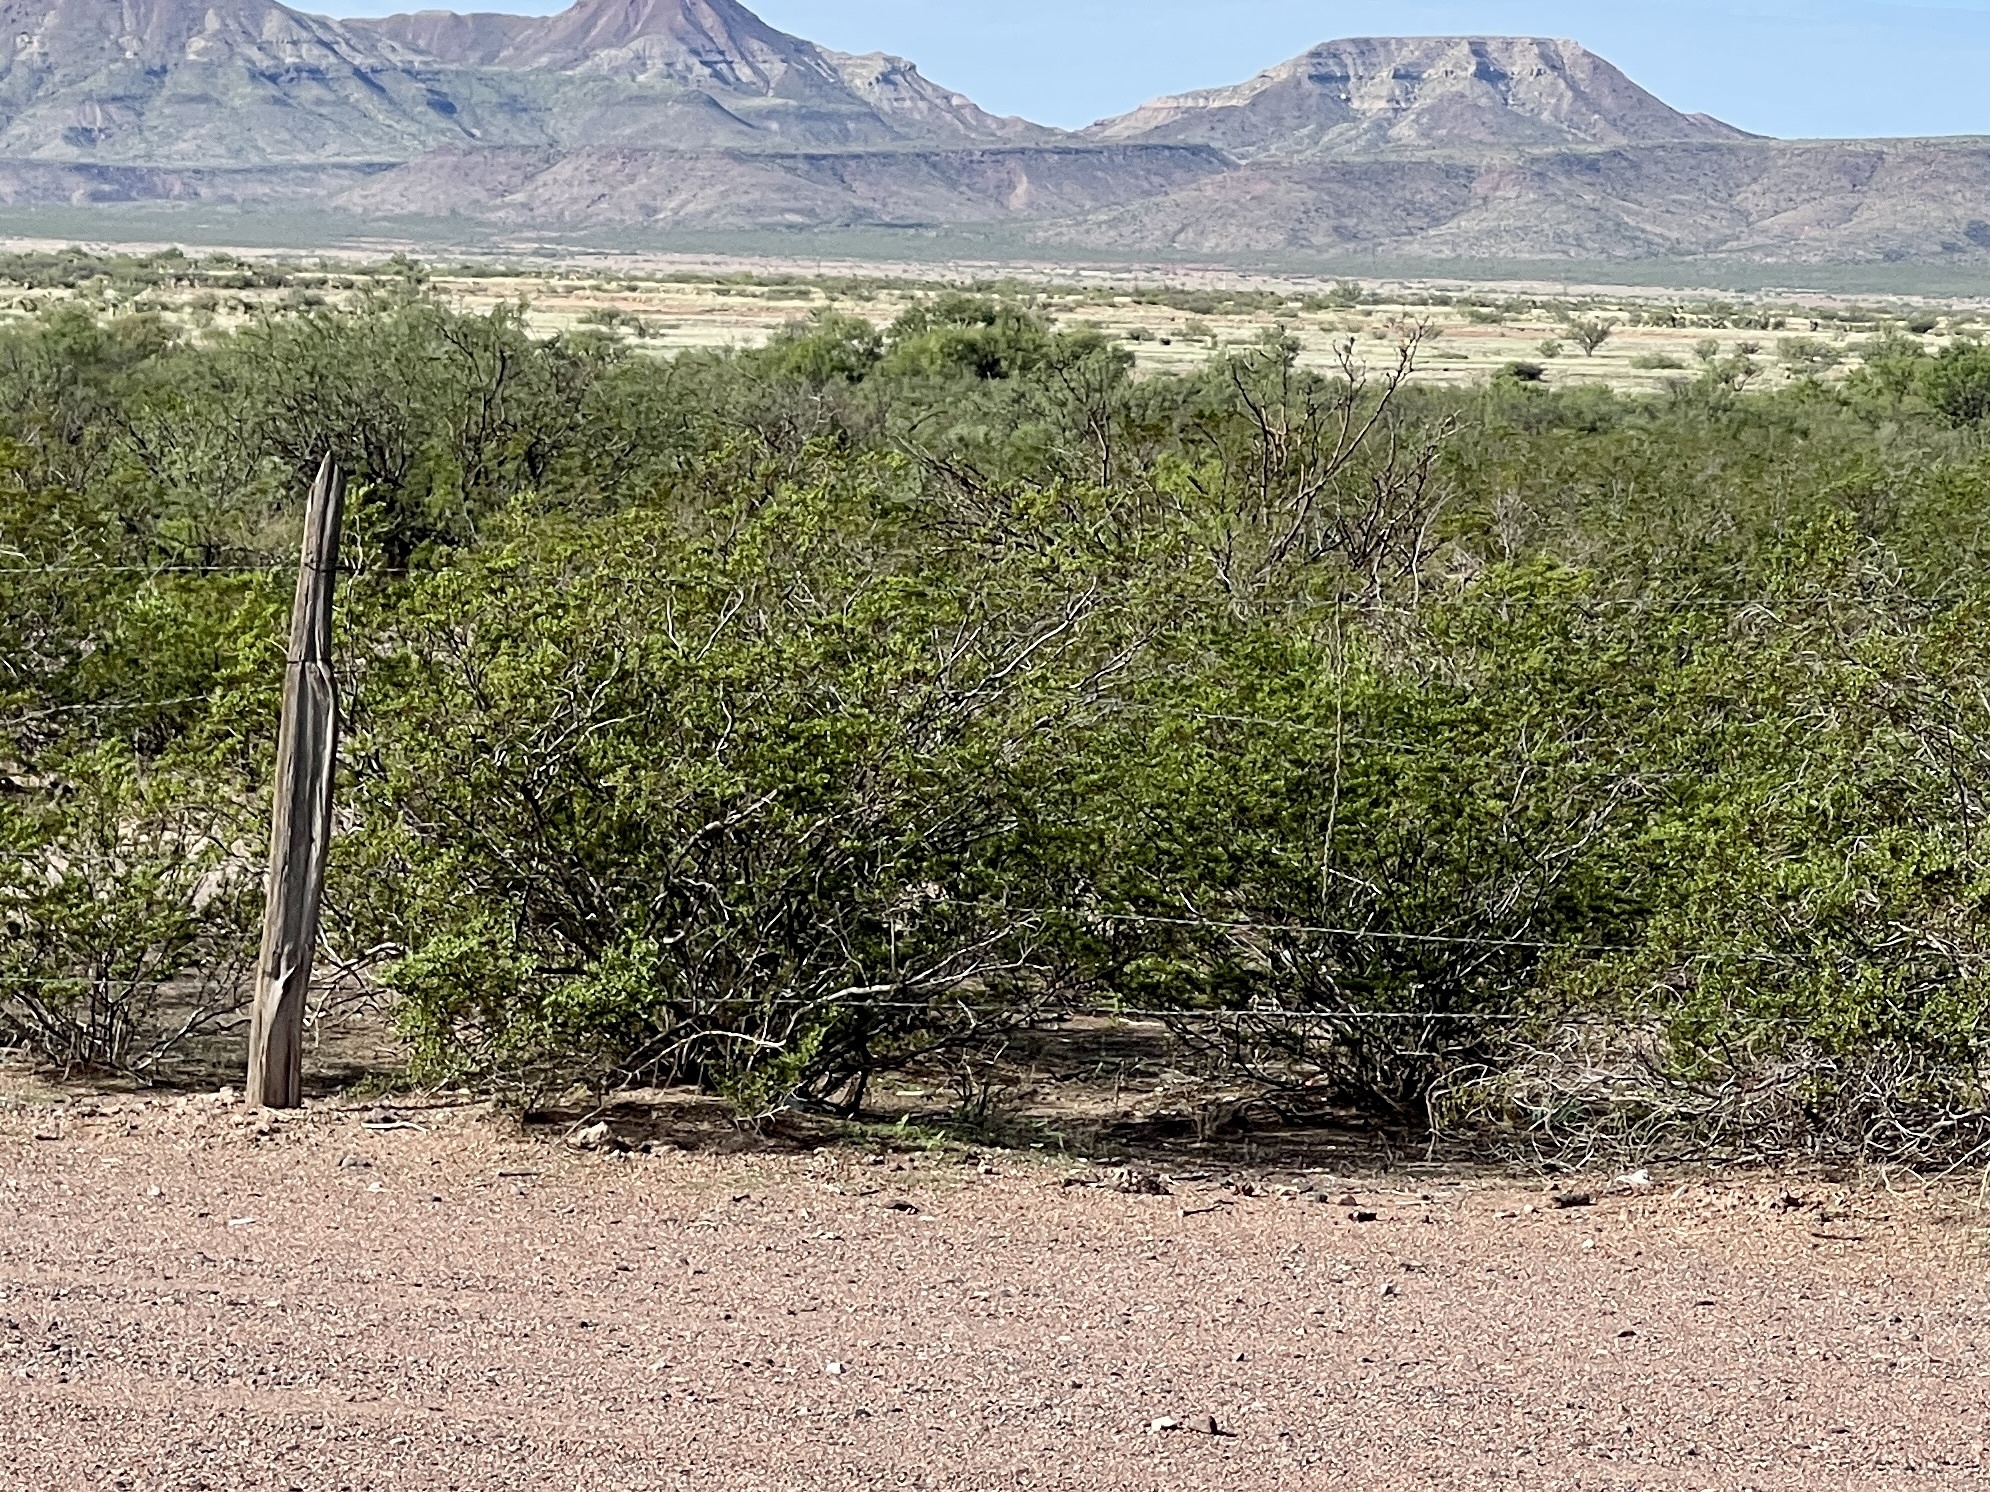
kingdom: Plantae
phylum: Tracheophyta
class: Magnoliopsida
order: Zygophyllales
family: Zygophyllaceae
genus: Larrea
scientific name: Larrea tridentata
